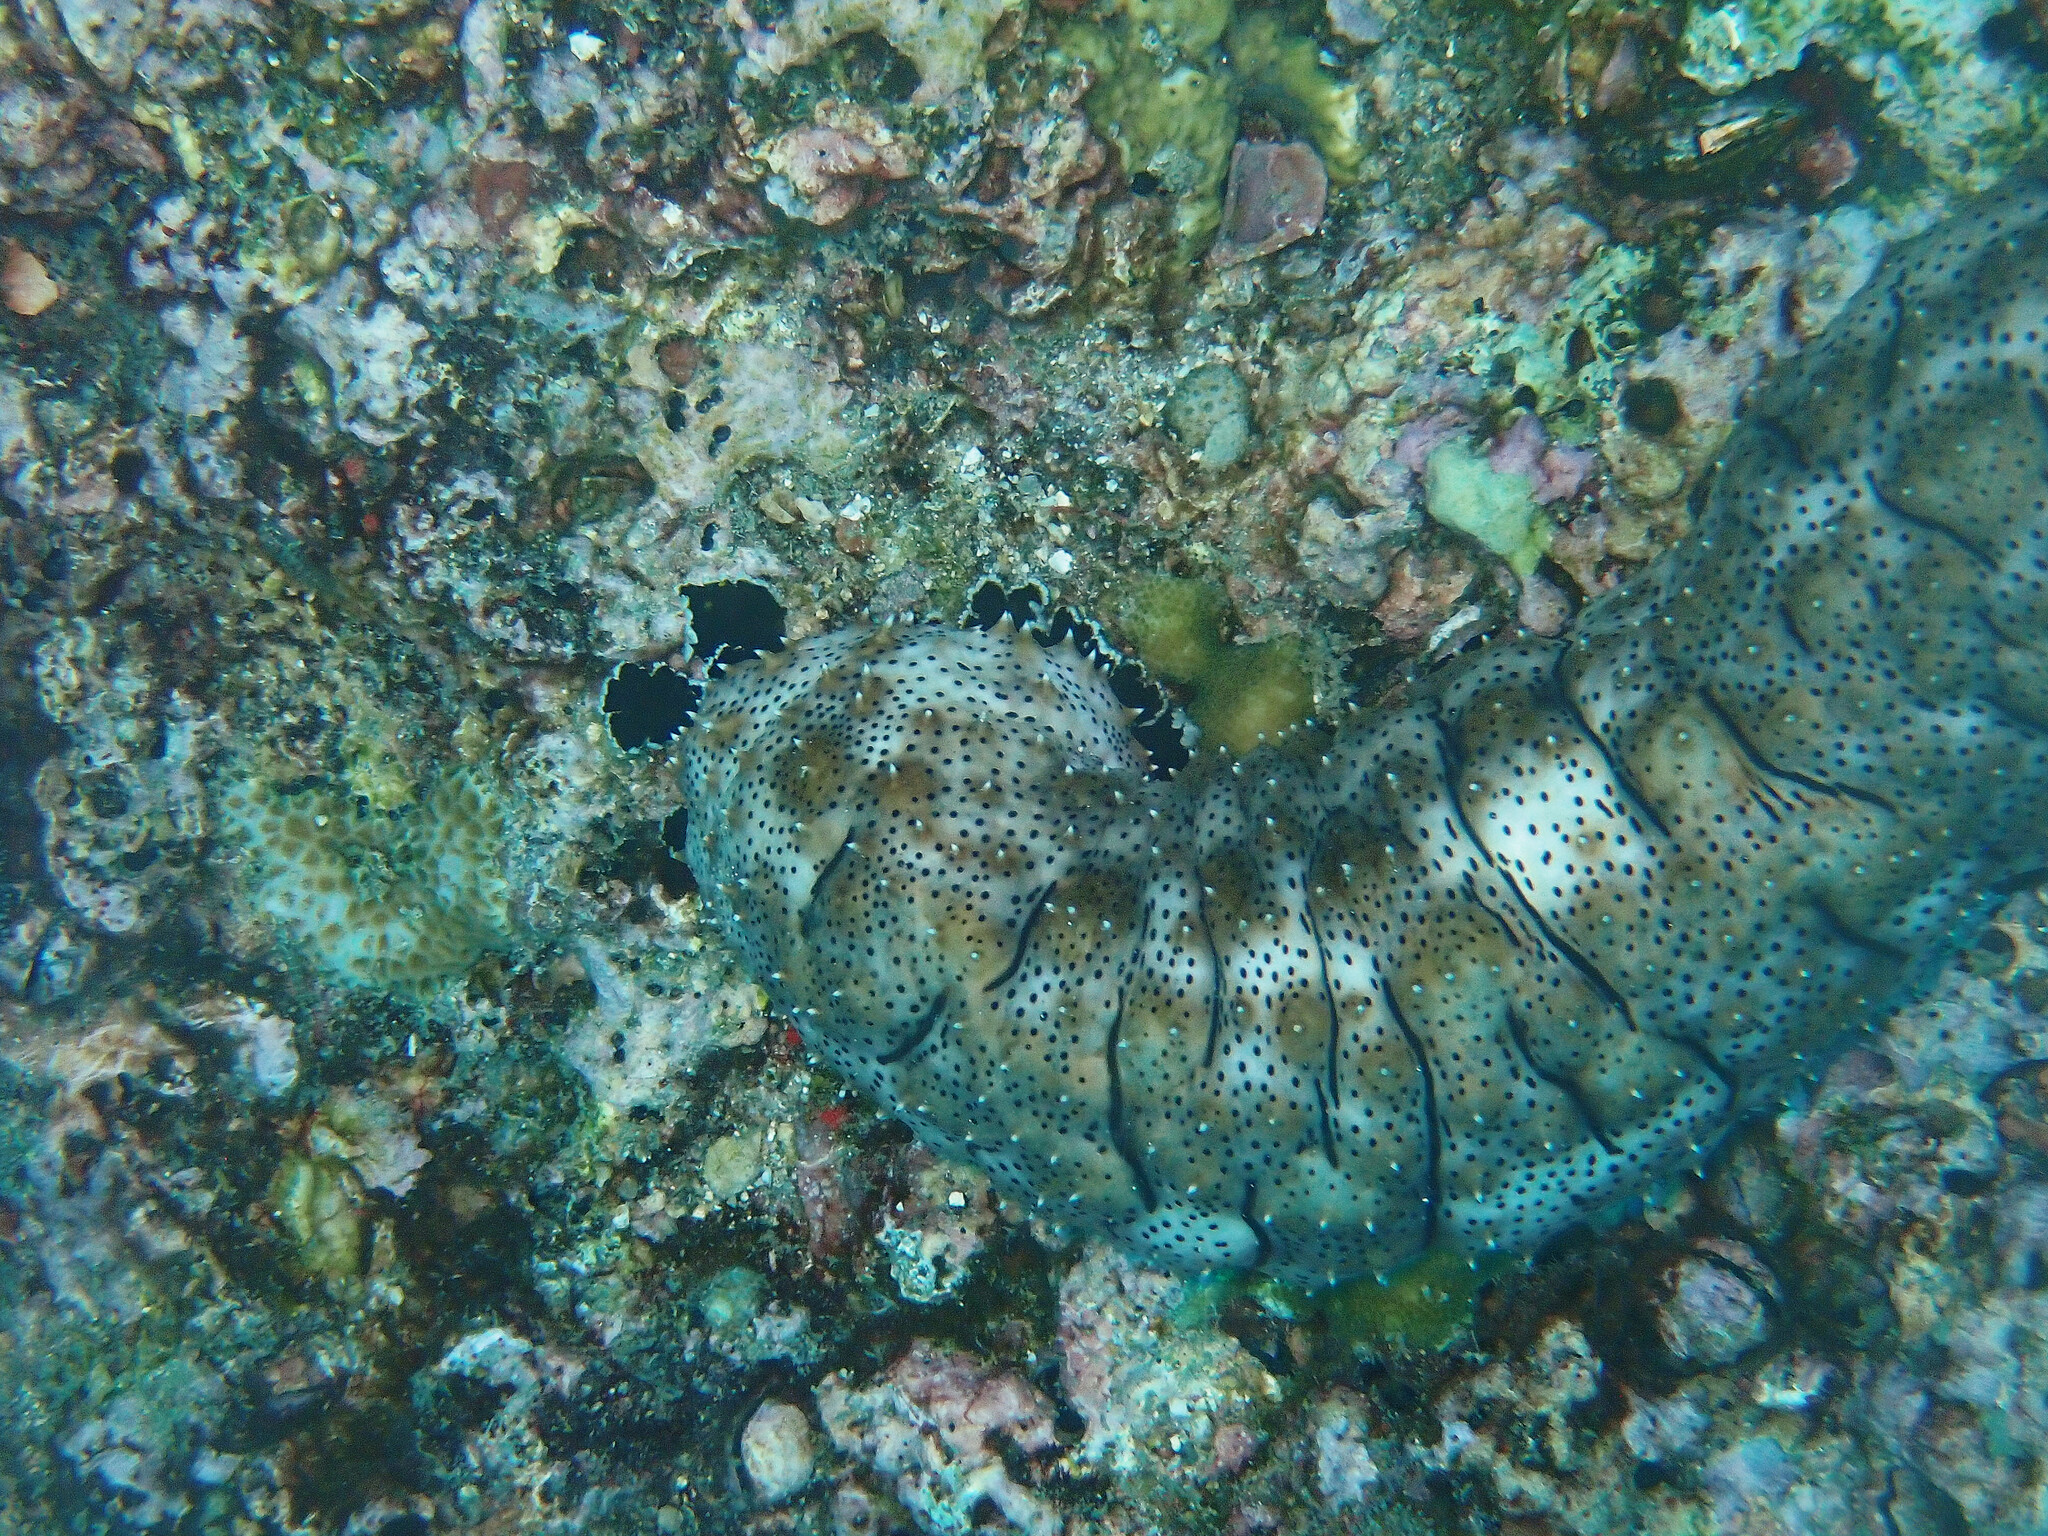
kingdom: Animalia
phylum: Echinodermata
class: Holothuroidea
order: Holothuriida
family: Holothuriidae
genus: Pearsonothuria
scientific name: Pearsonothuria graeffei
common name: Blackspotted sea cucumber
